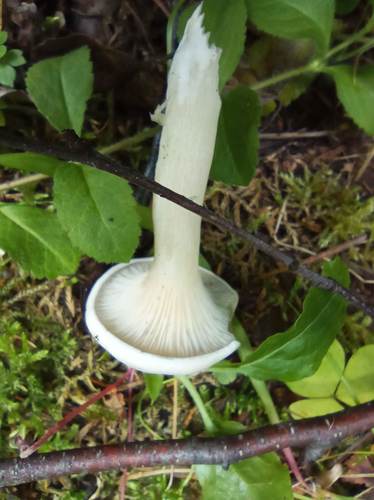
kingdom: Fungi
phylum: Basidiomycota
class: Agaricomycetes
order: Agaricales
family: Hygrophoraceae
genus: Ampulloclitocybe
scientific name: Ampulloclitocybe clavipes
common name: Club foot
